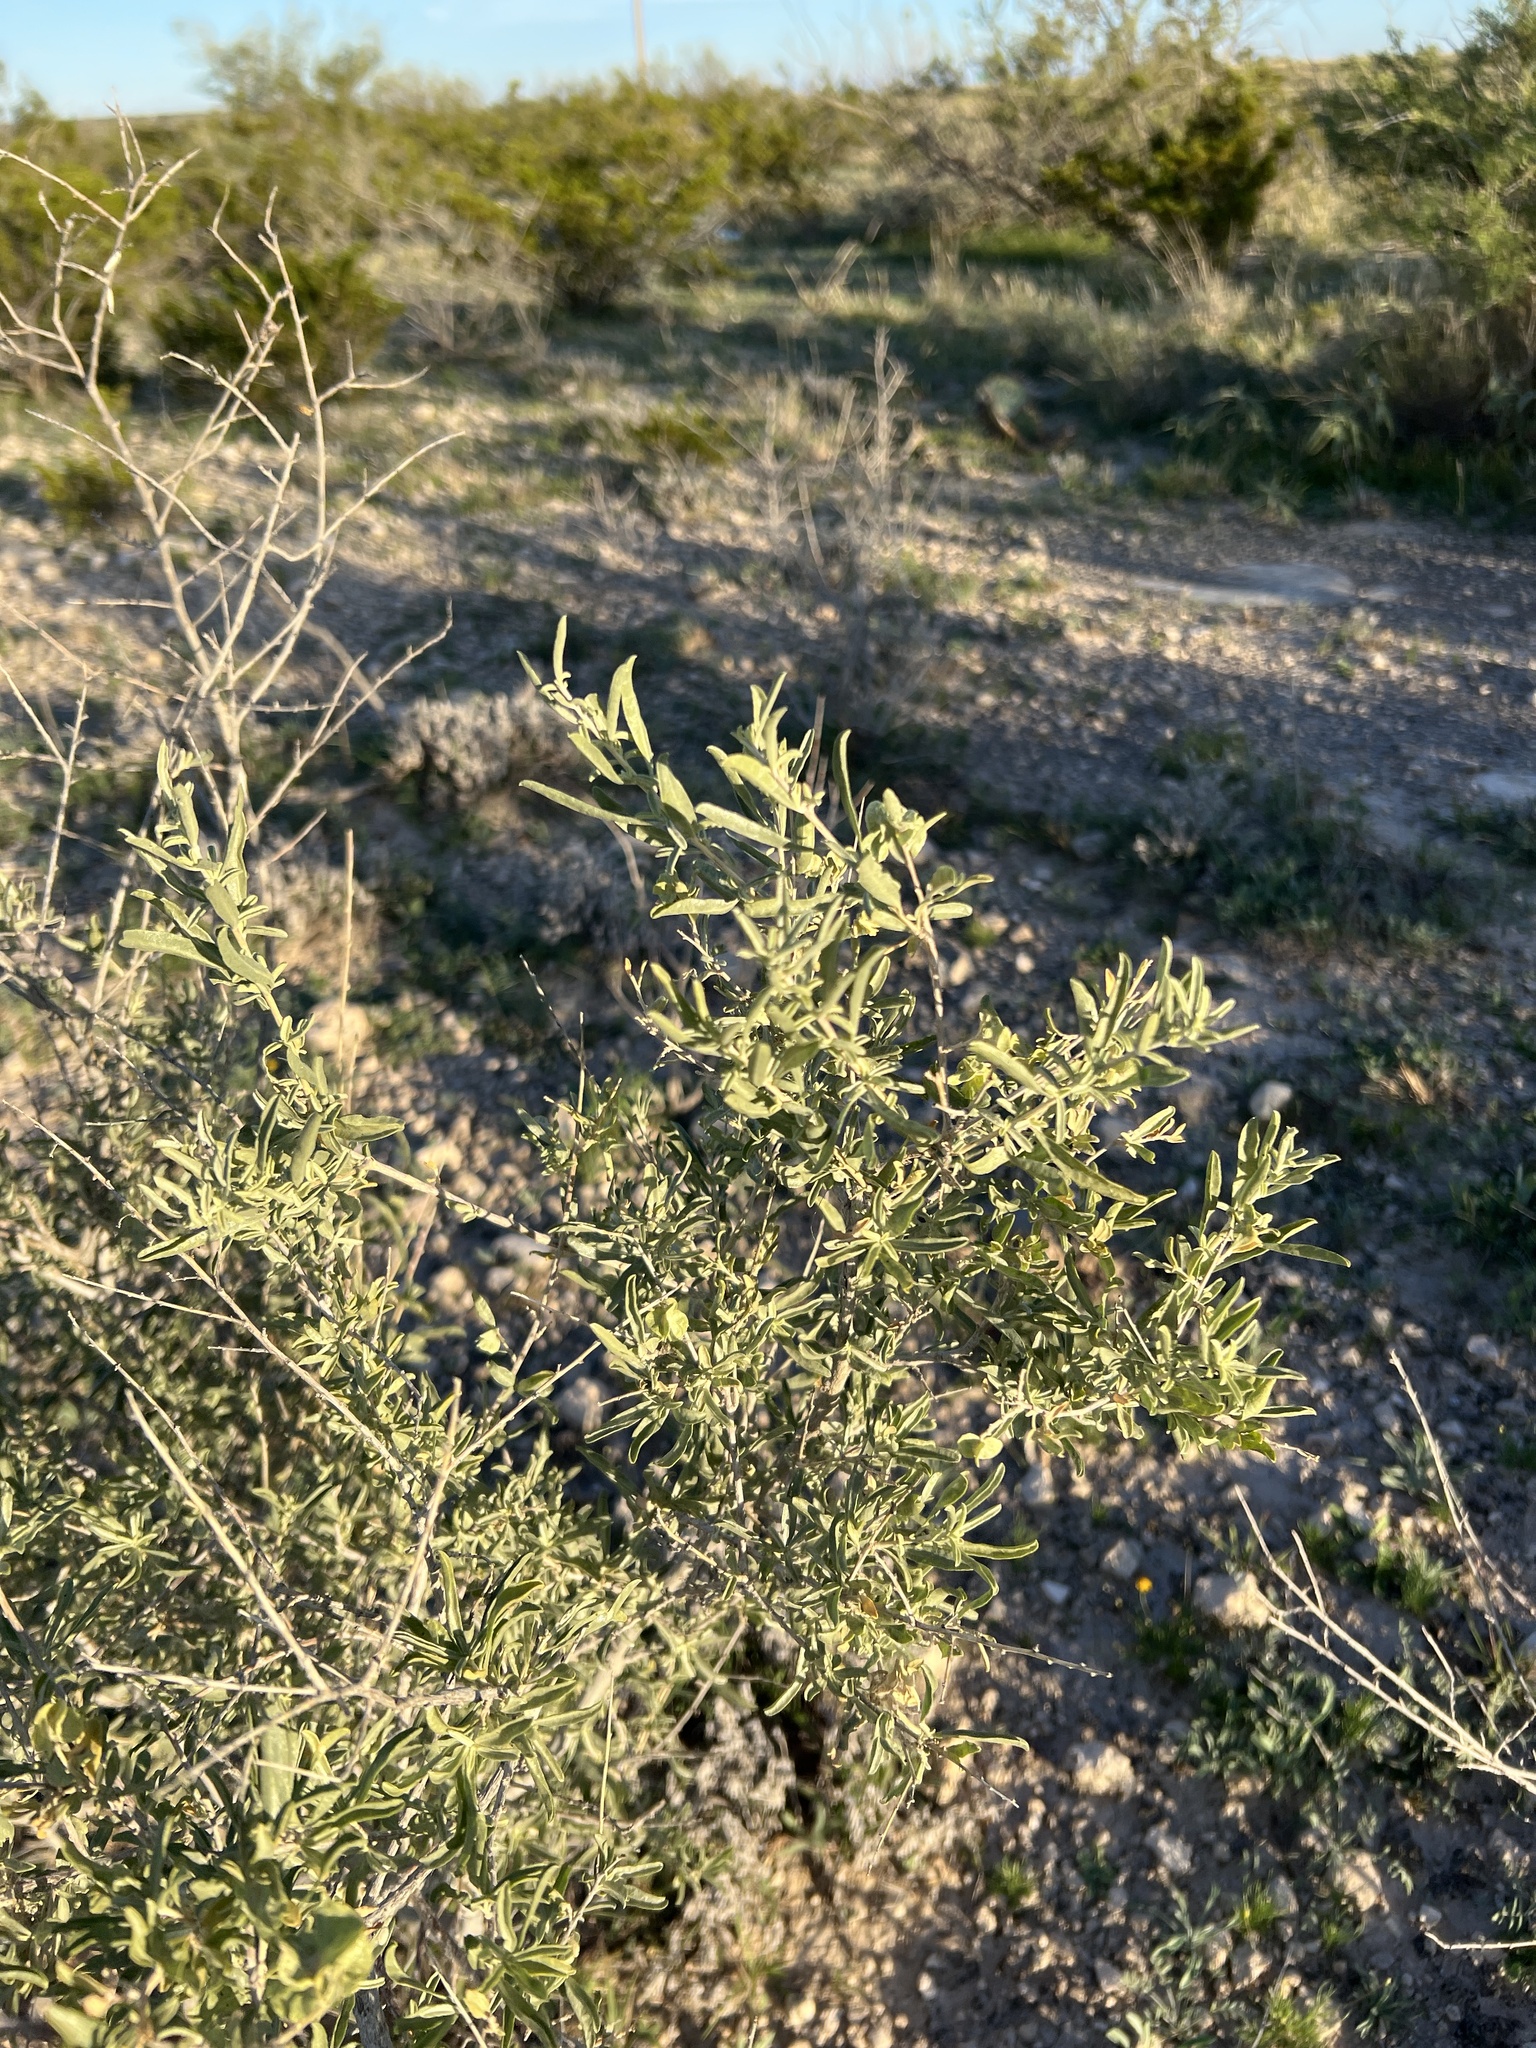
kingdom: Plantae
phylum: Tracheophyta
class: Magnoliopsida
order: Caryophyllales
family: Amaranthaceae
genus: Atriplex
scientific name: Atriplex canescens
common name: Four-wing saltbush
